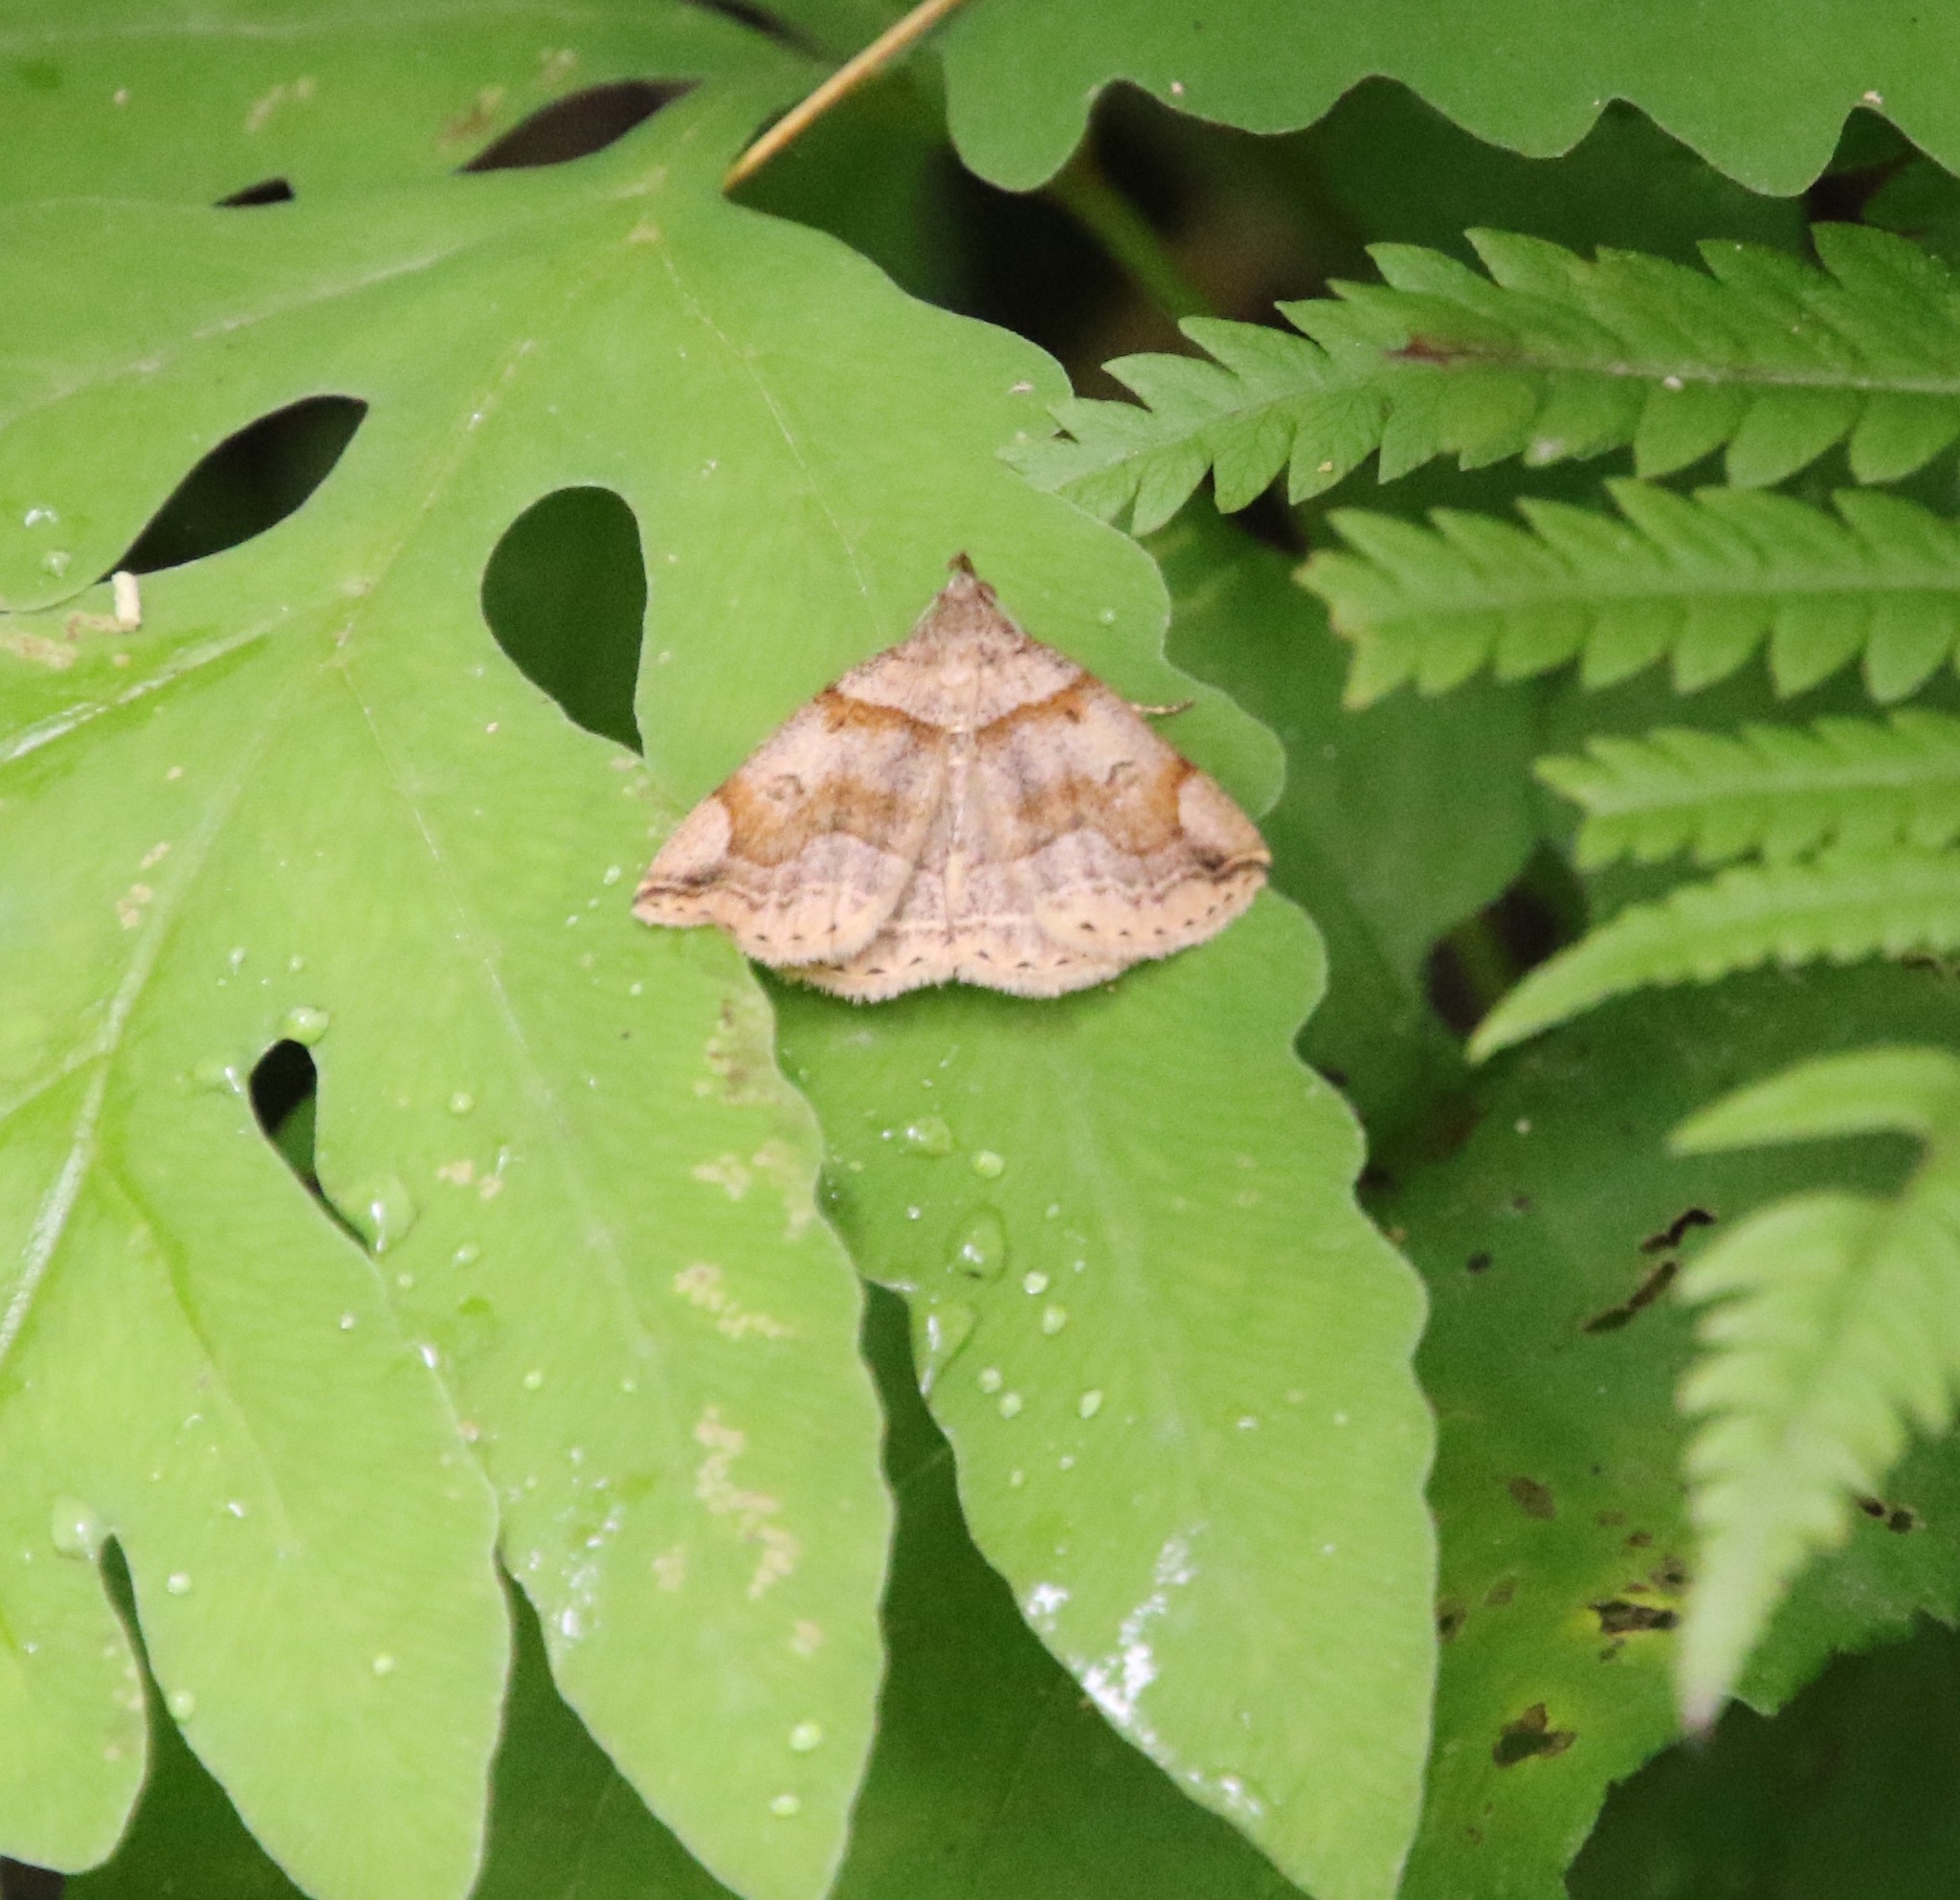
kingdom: Animalia
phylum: Arthropoda
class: Insecta
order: Lepidoptera
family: Erebidae
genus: Zanclognatha
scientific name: Zanclognatha laevigata
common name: Variable fan-foot
